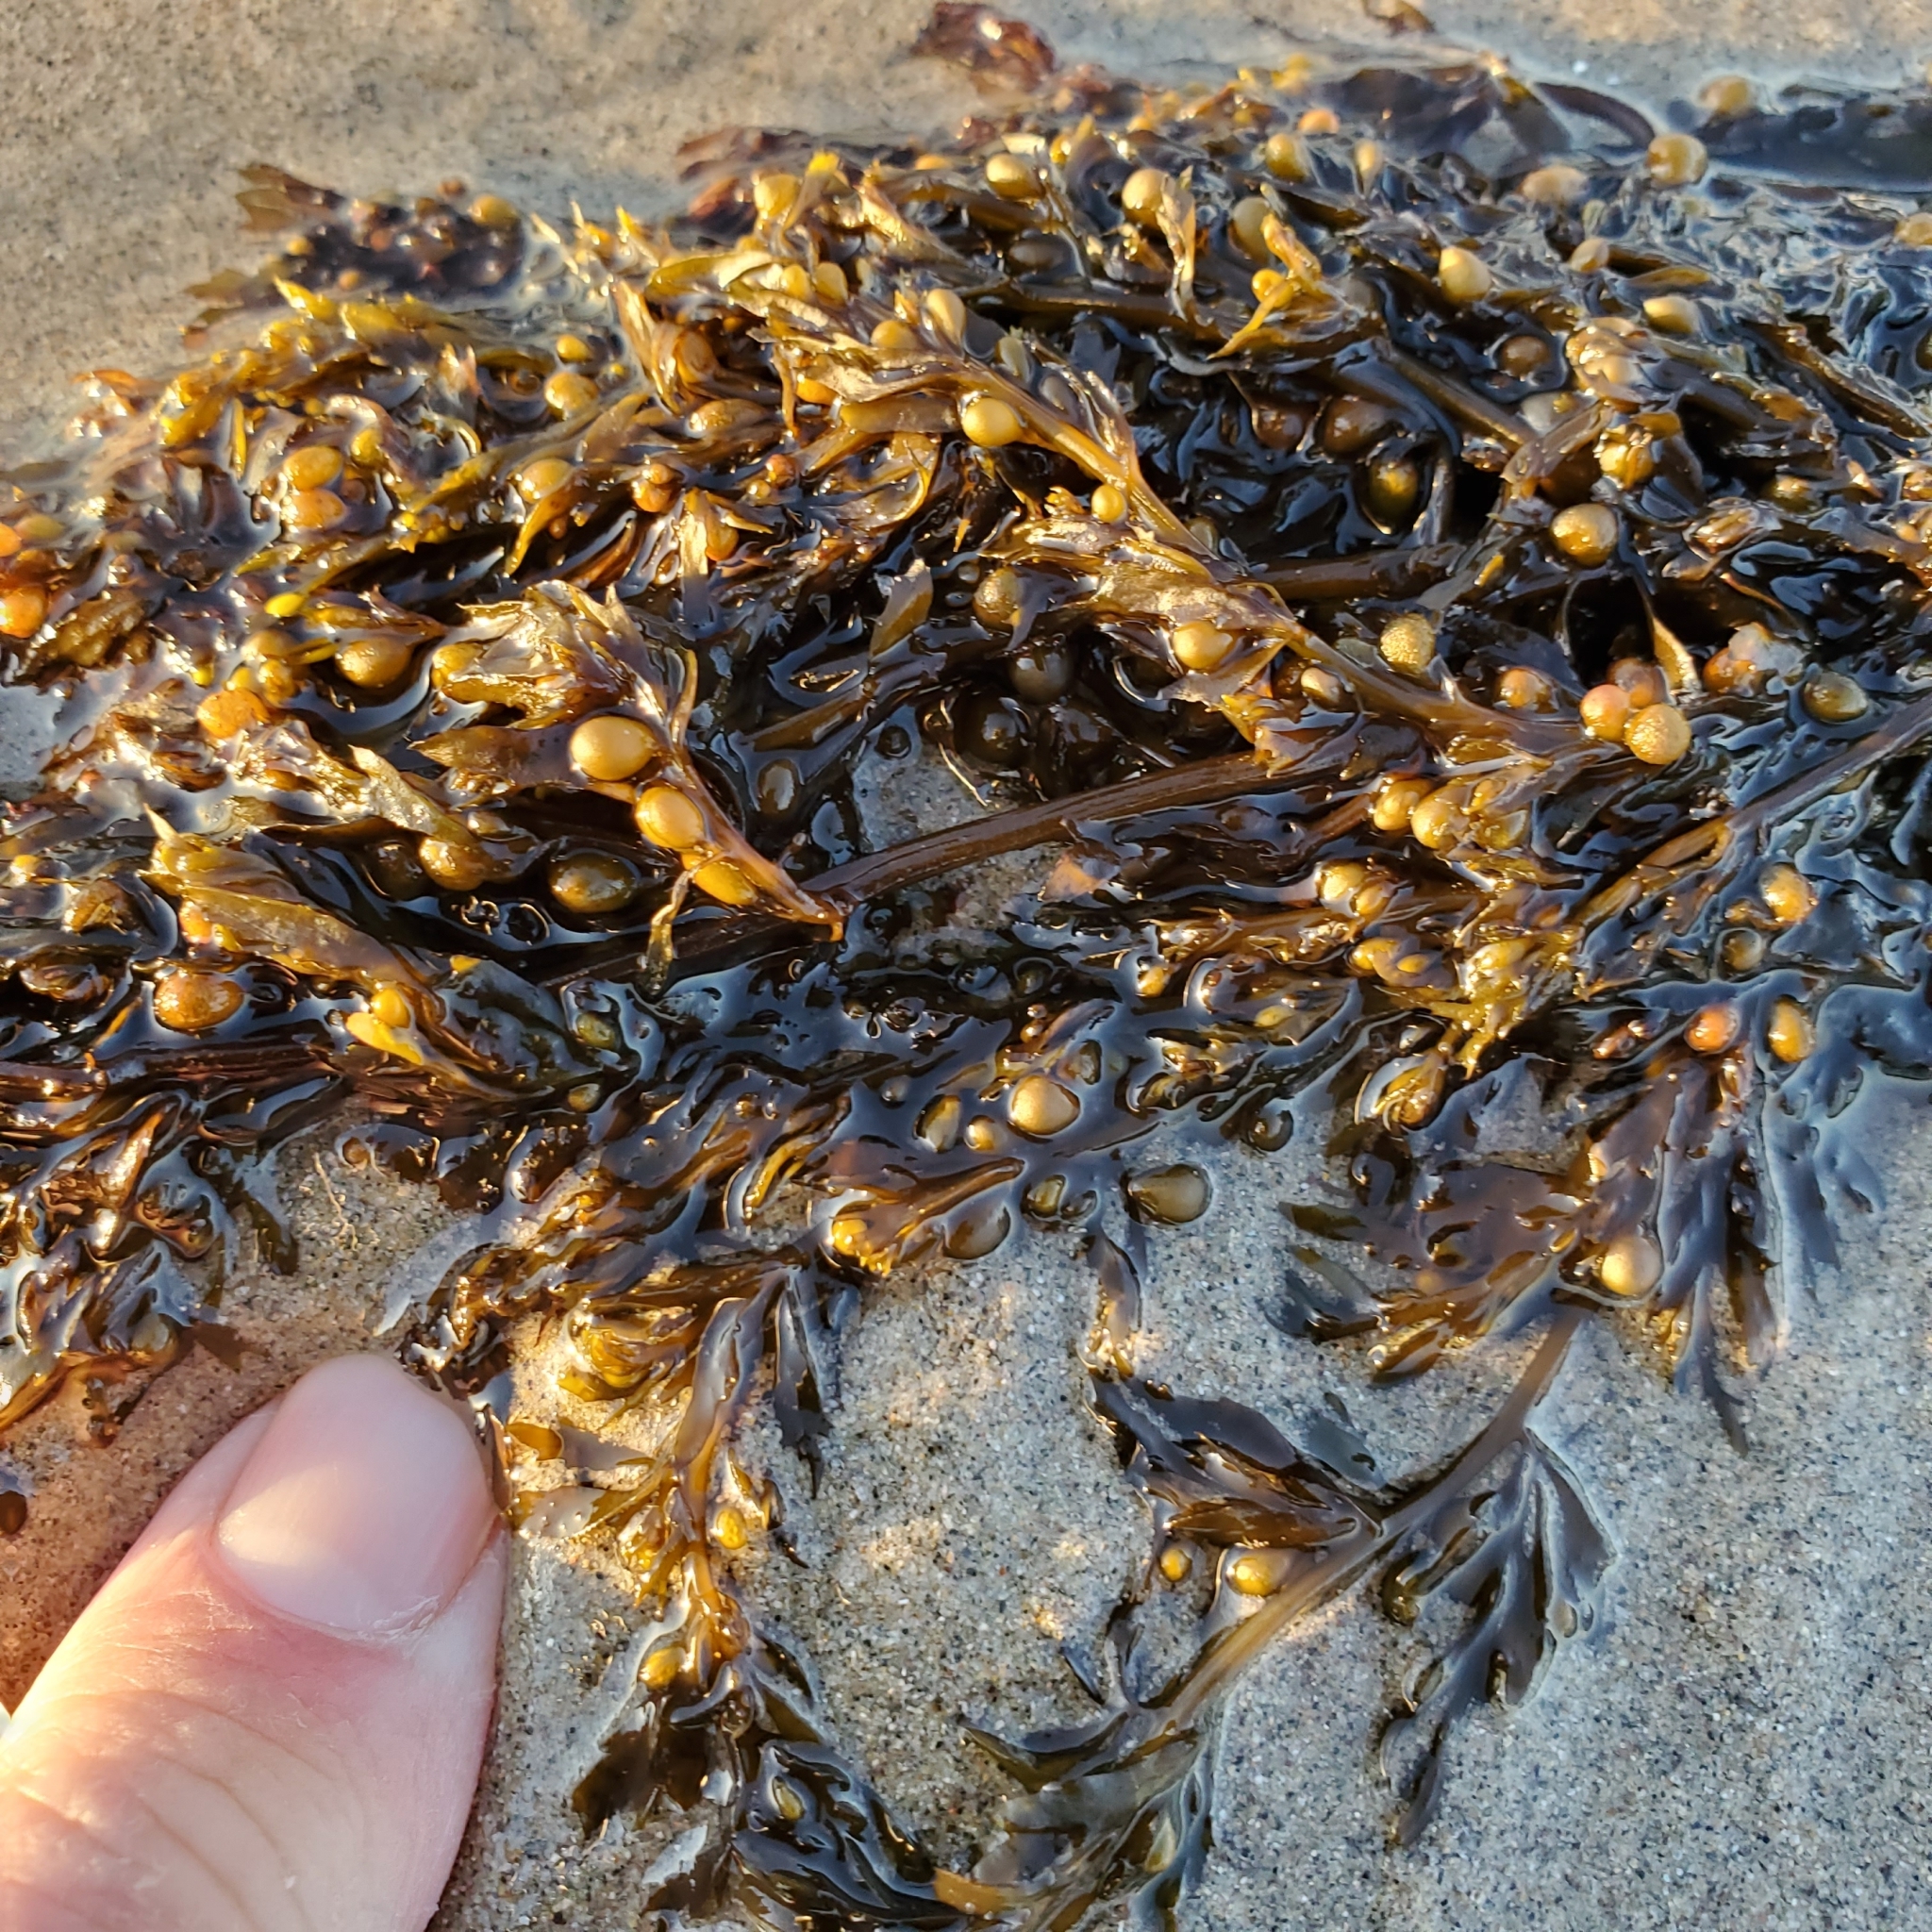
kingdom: Chromista
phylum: Ochrophyta
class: Phaeophyceae
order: Fucales
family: Sargassaceae
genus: Sargassum
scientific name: Sargassum muticum
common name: Japweed
